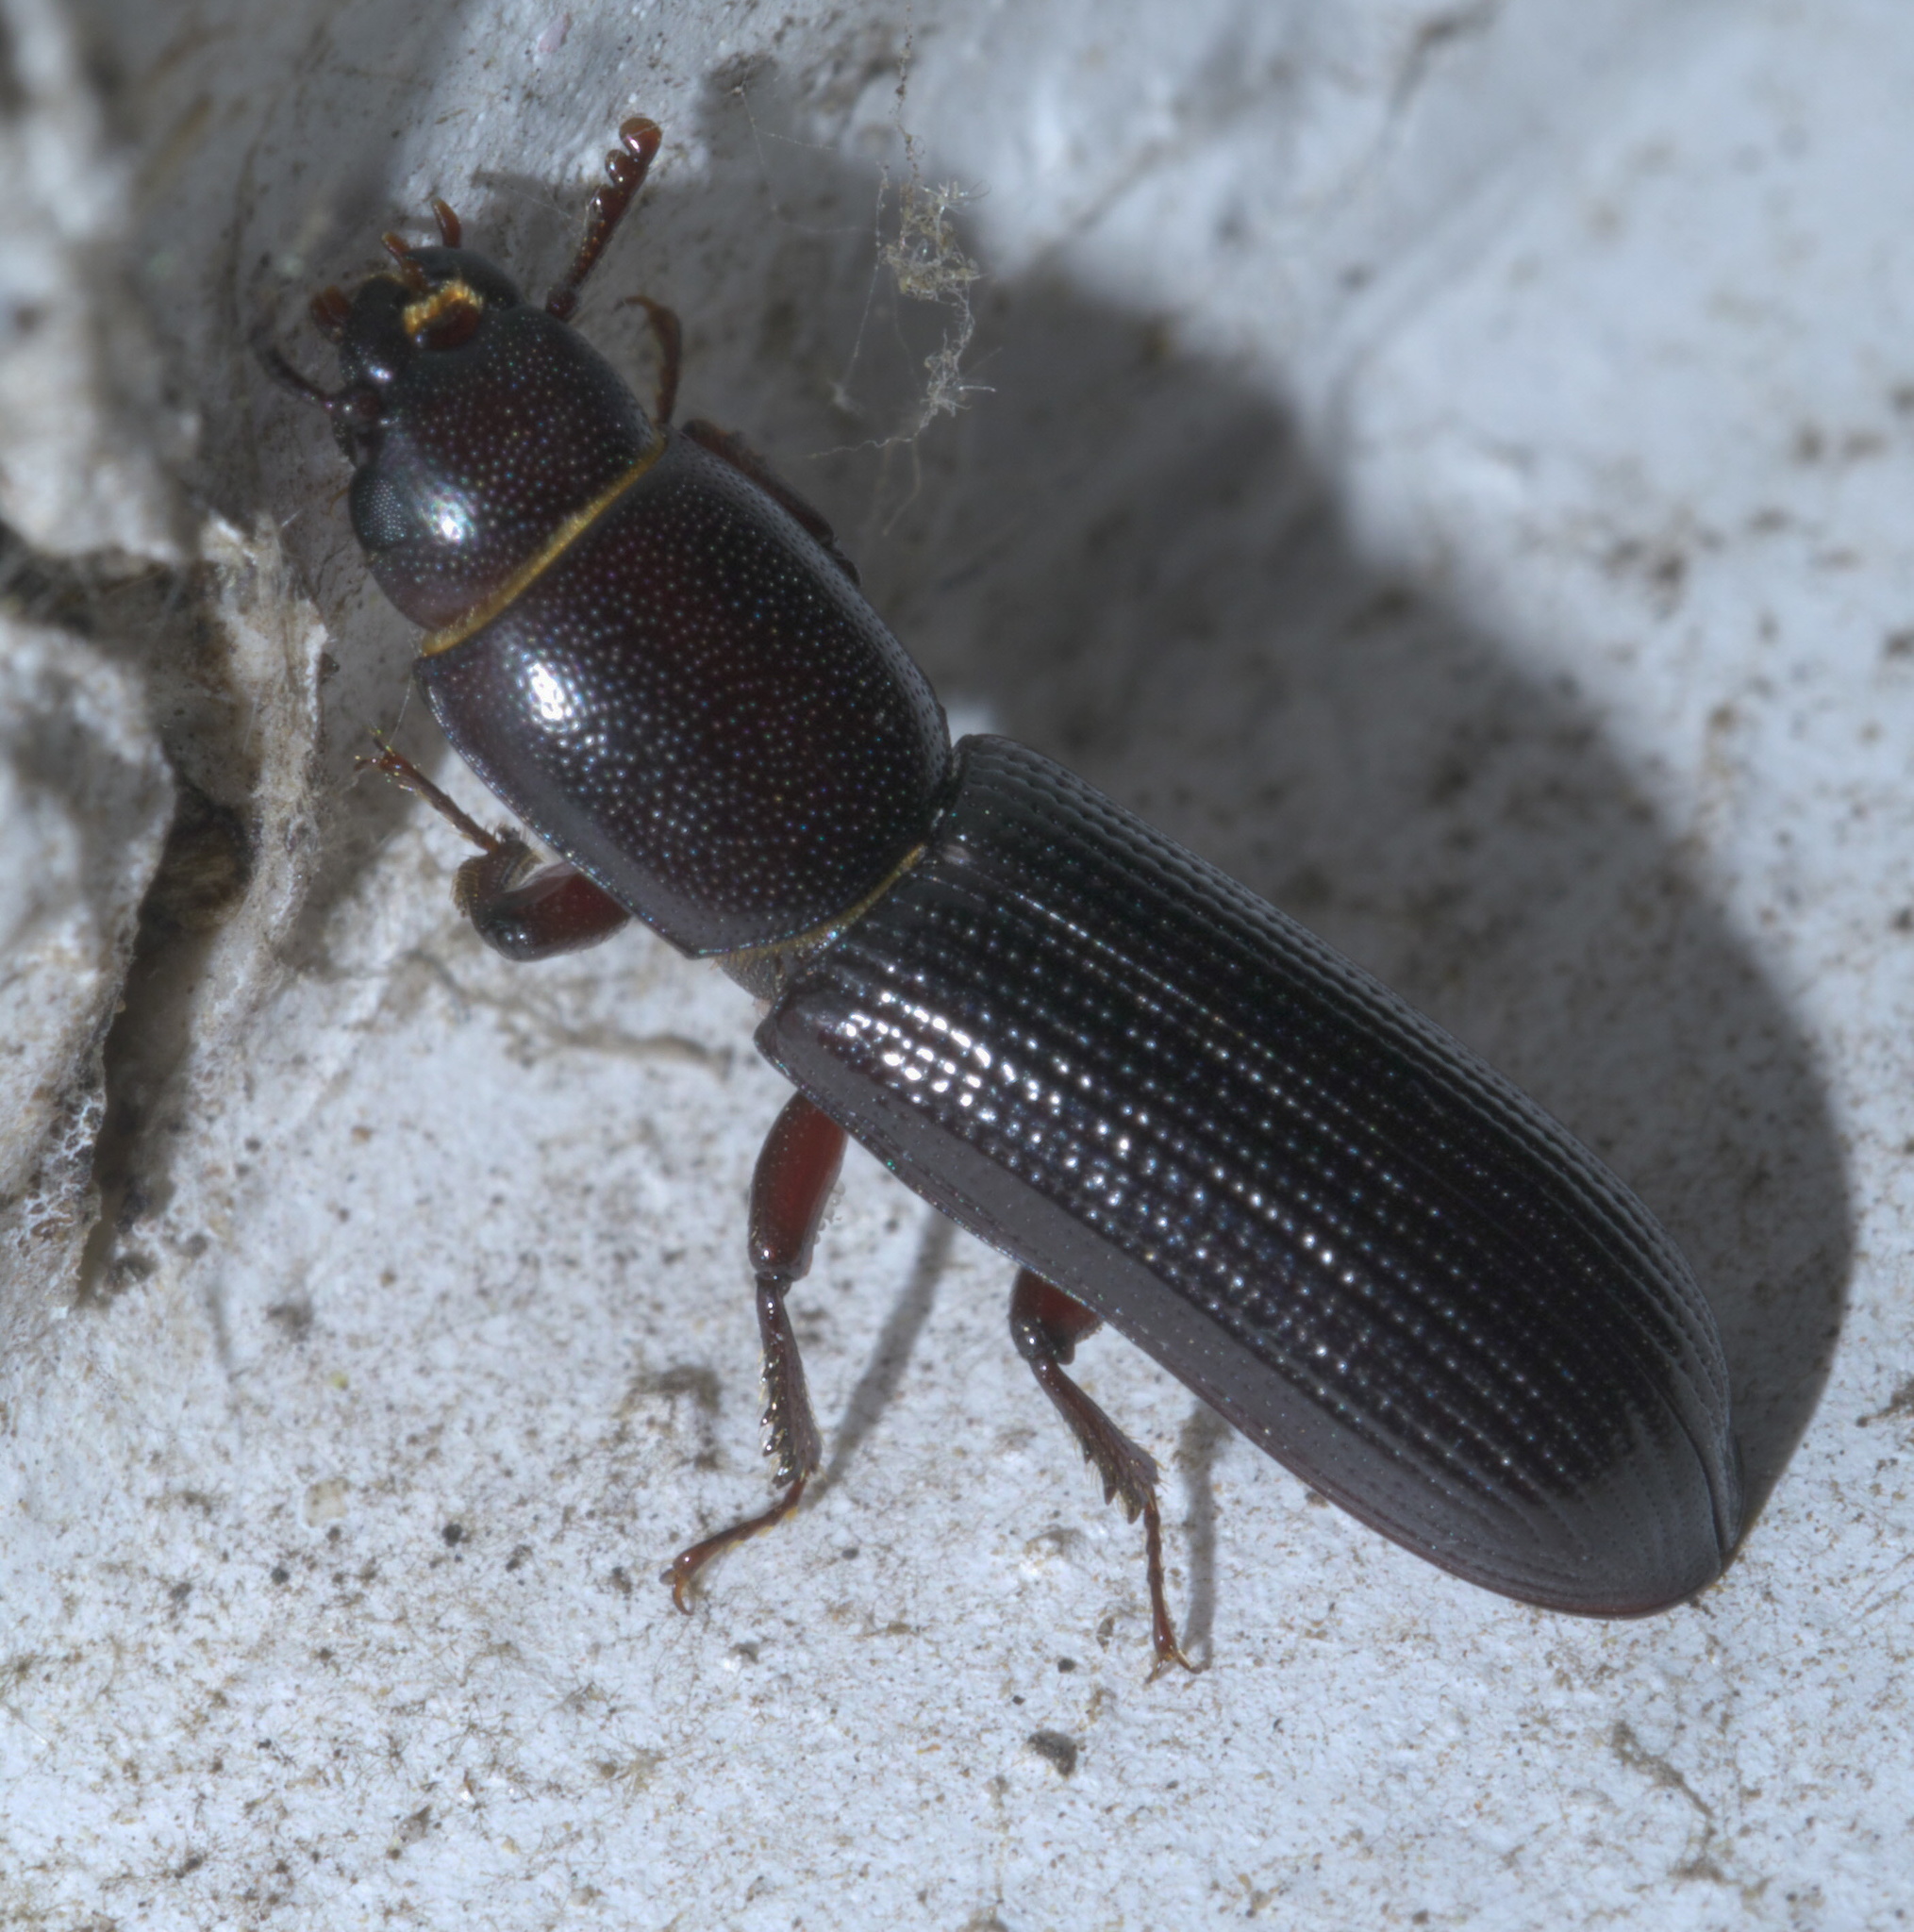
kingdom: Animalia
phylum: Arthropoda
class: Insecta
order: Coleoptera
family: Trogossitidae
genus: Airora
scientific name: Airora cylindrica
